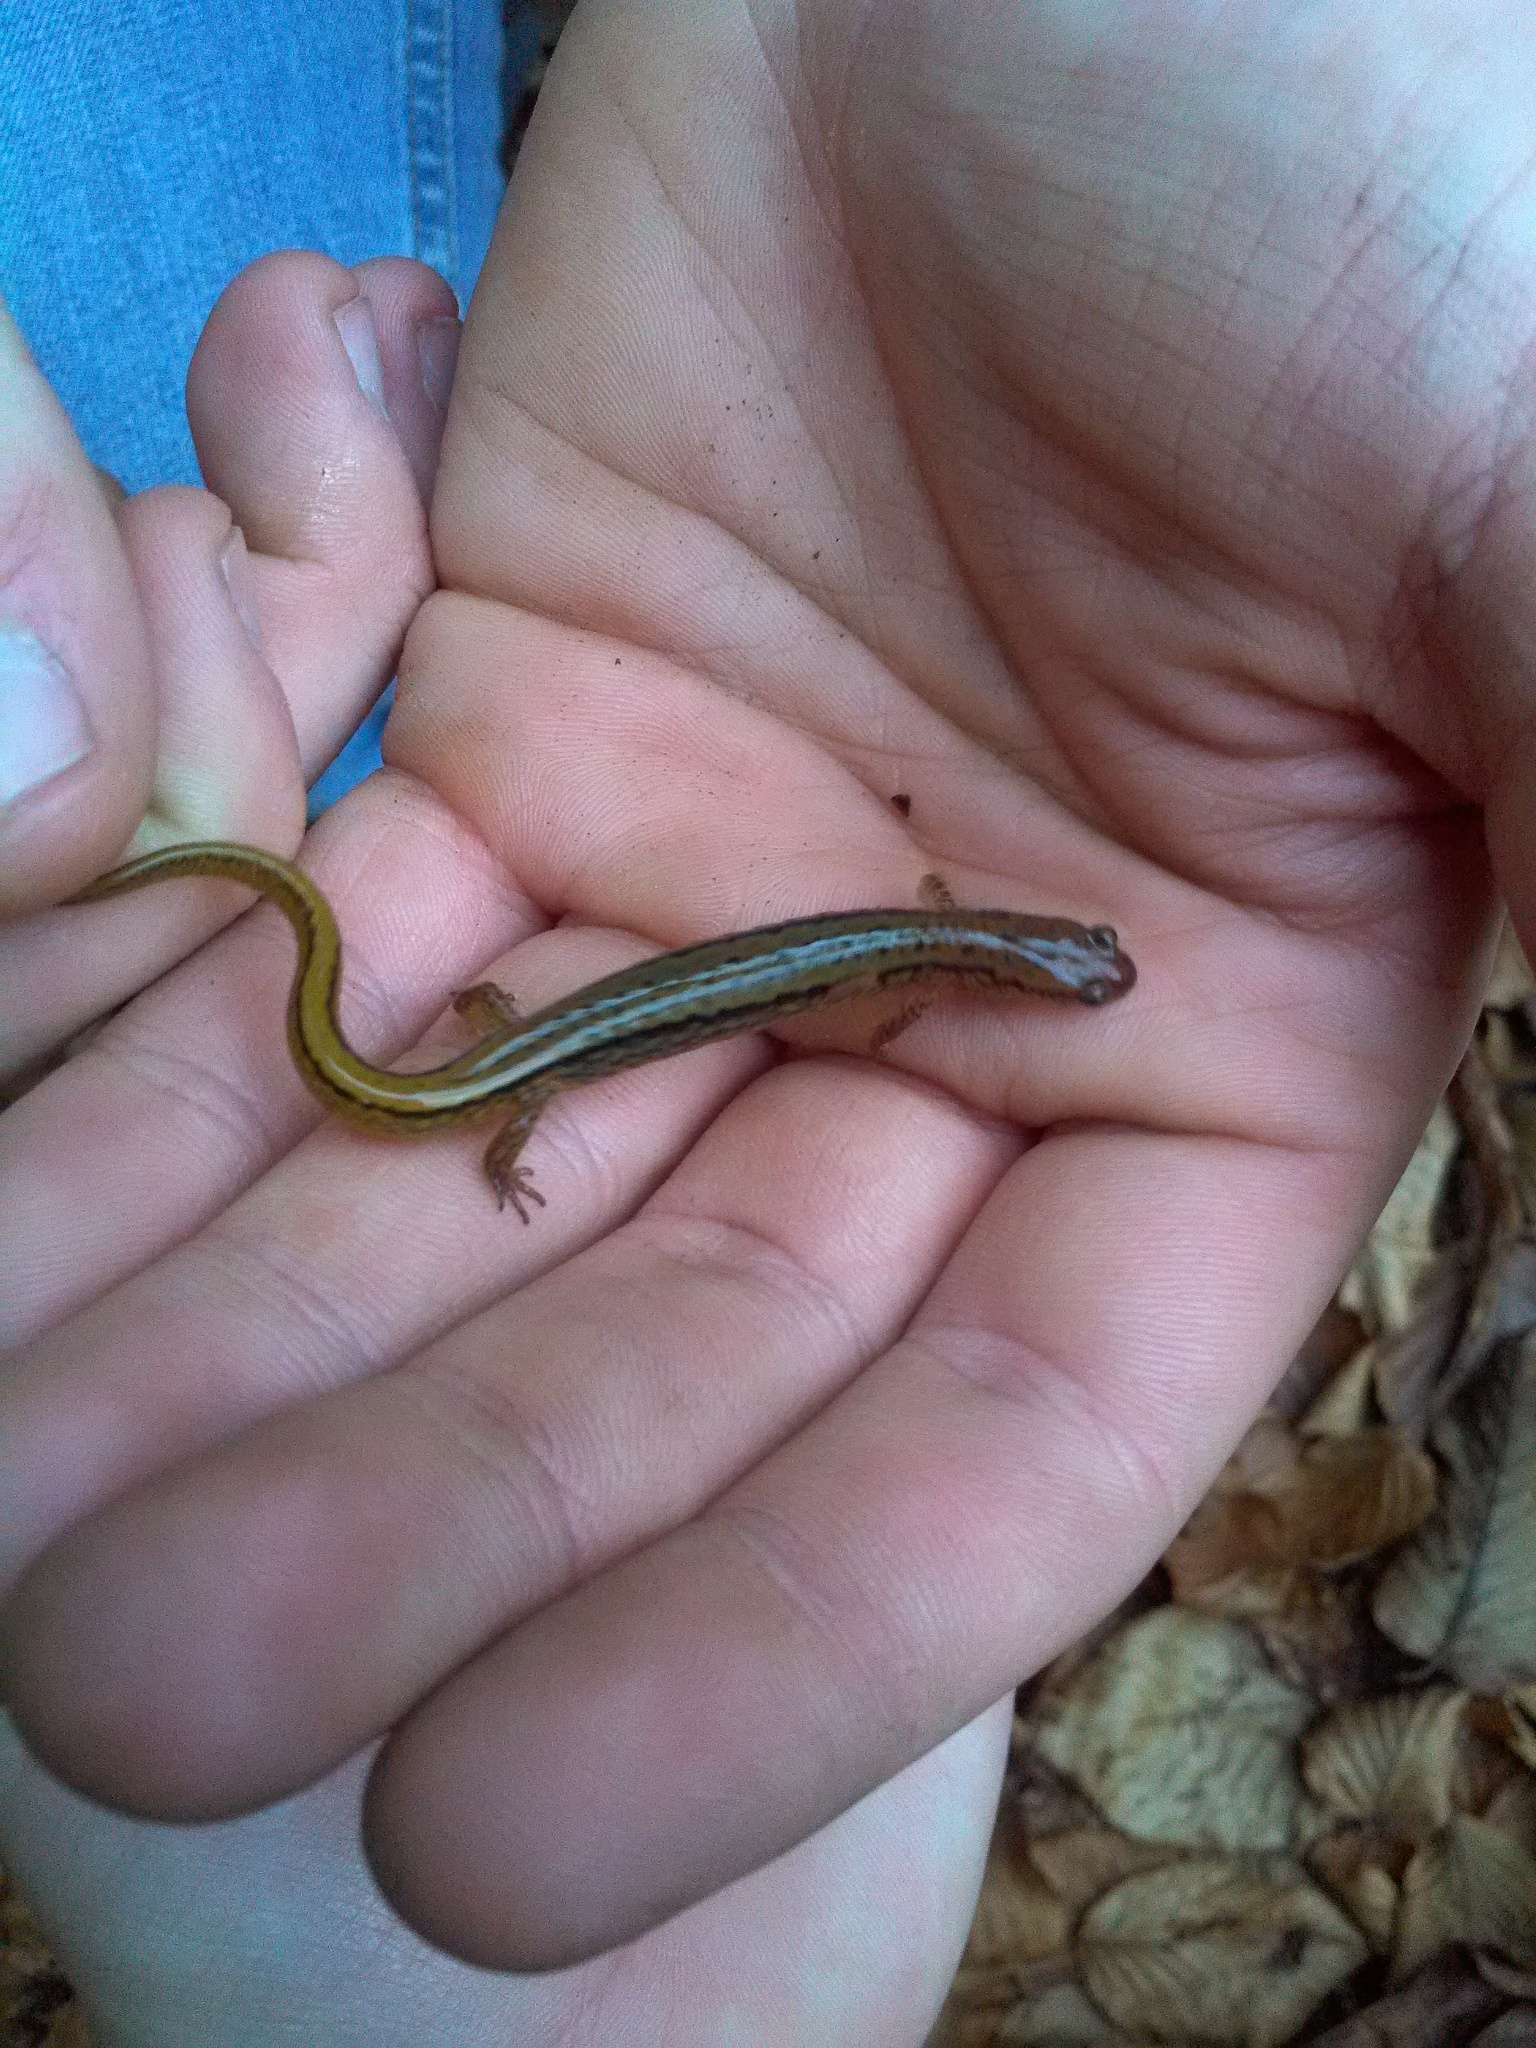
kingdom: Animalia
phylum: Chordata
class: Amphibia
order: Caudata
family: Plethodontidae
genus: Eurycea
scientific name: Eurycea cirrigera
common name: Southern two-lined salamander
